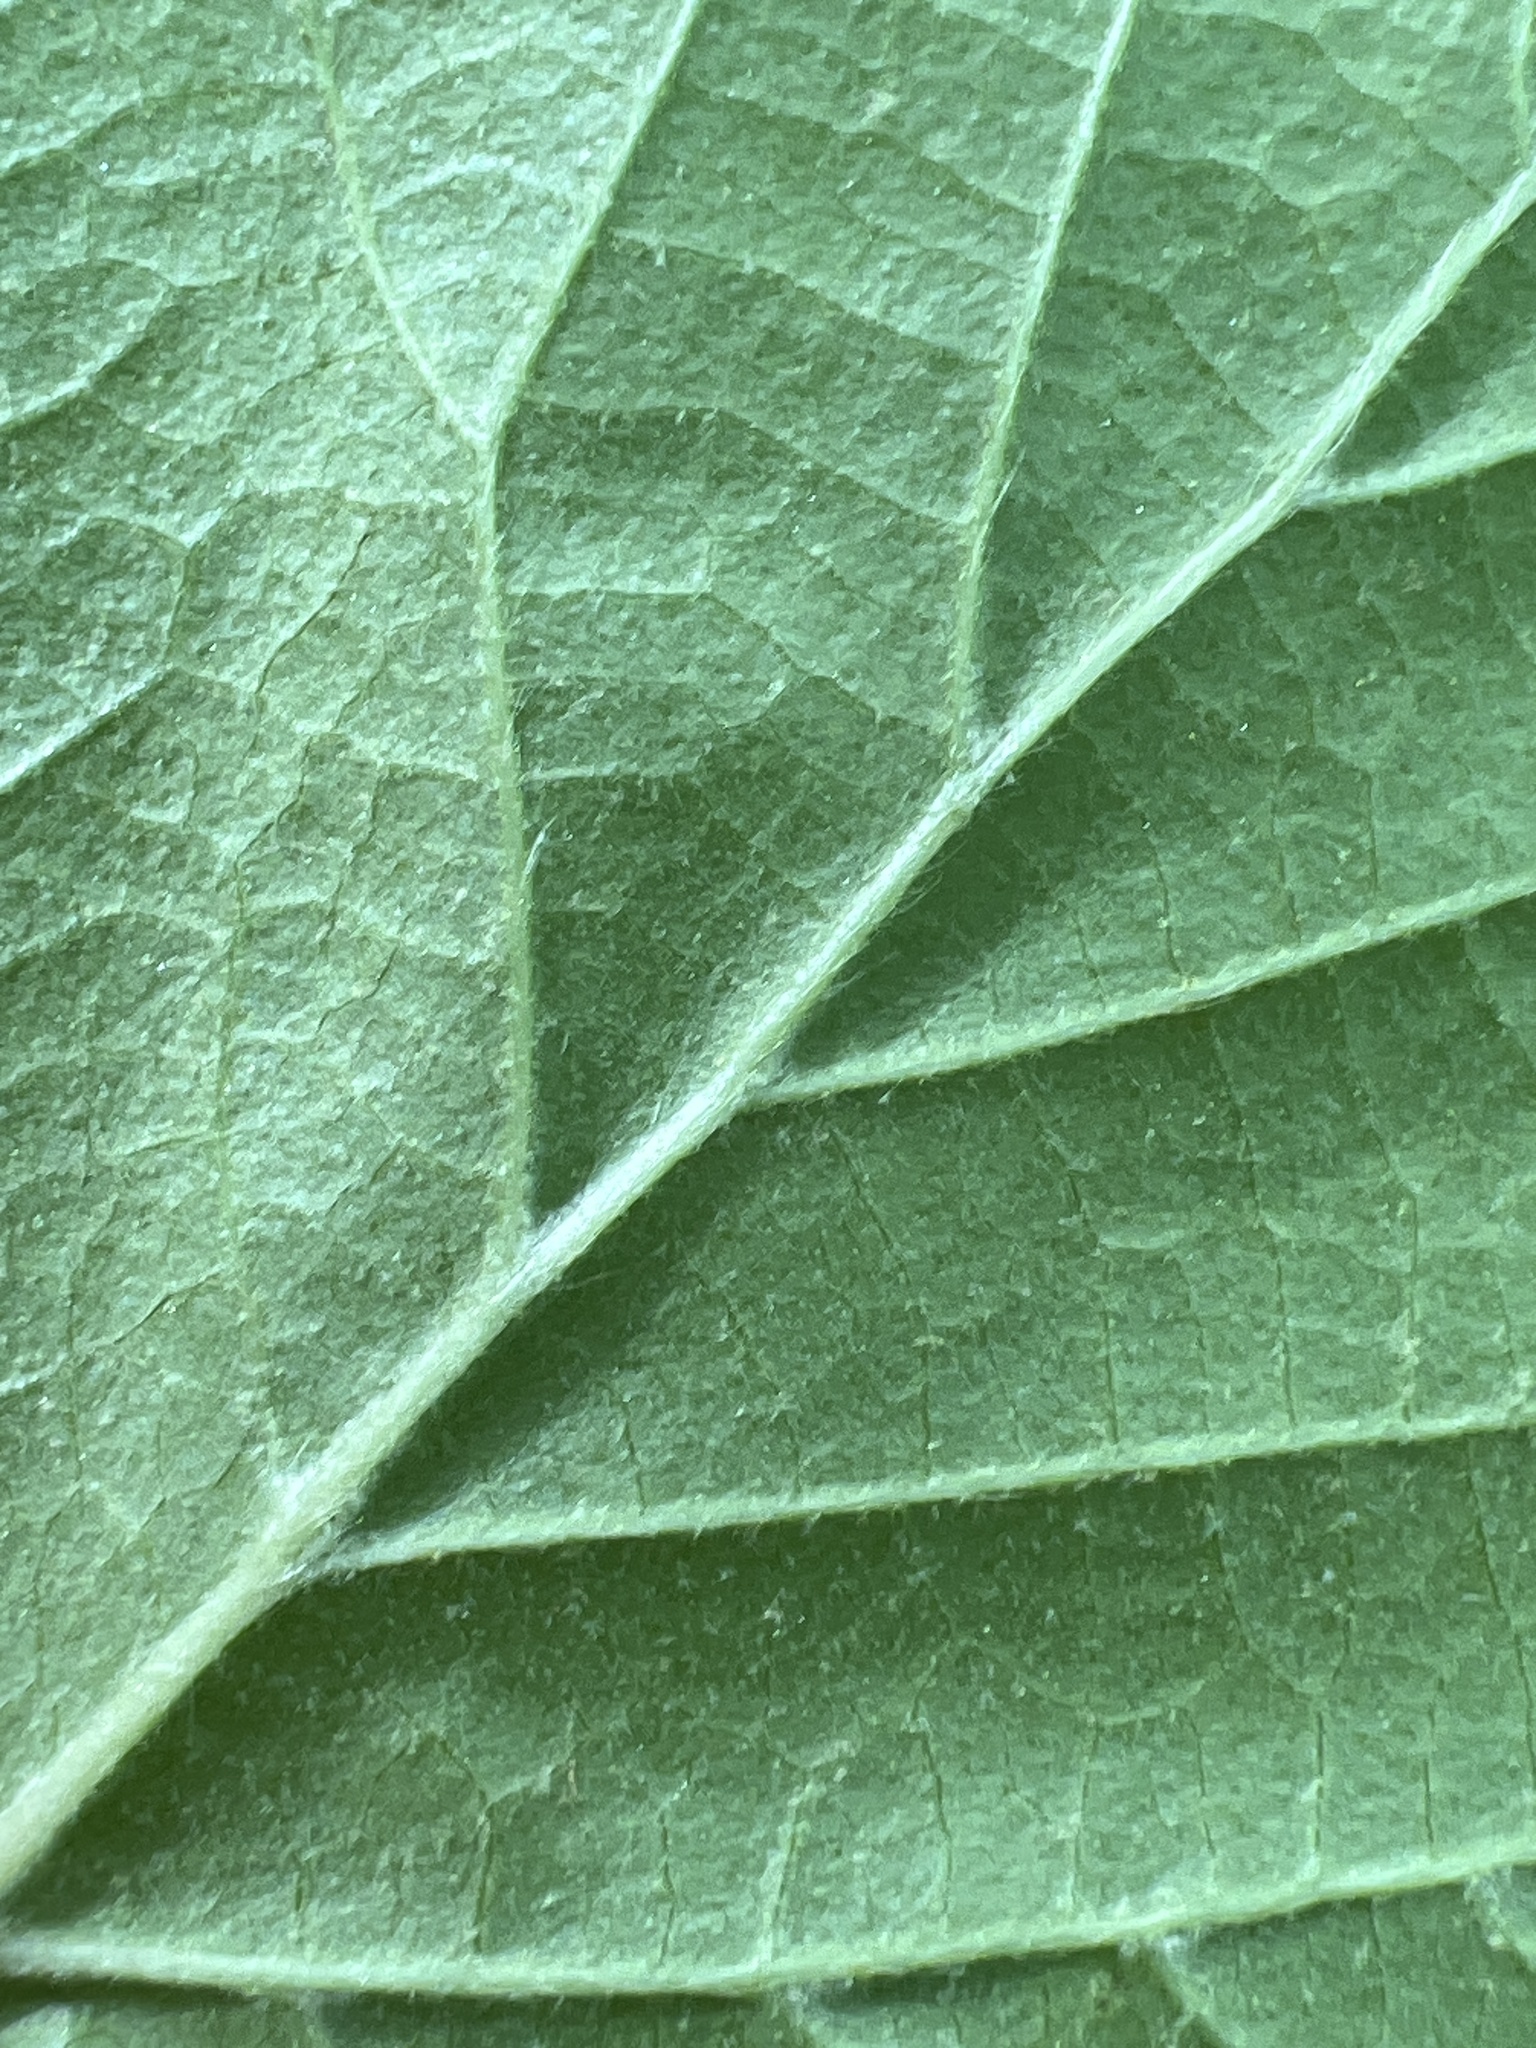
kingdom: Plantae
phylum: Tracheophyta
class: Magnoliopsida
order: Dipsacales
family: Viburnaceae
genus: Viburnum
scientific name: Viburnum acerifolium
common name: Dockmackie
